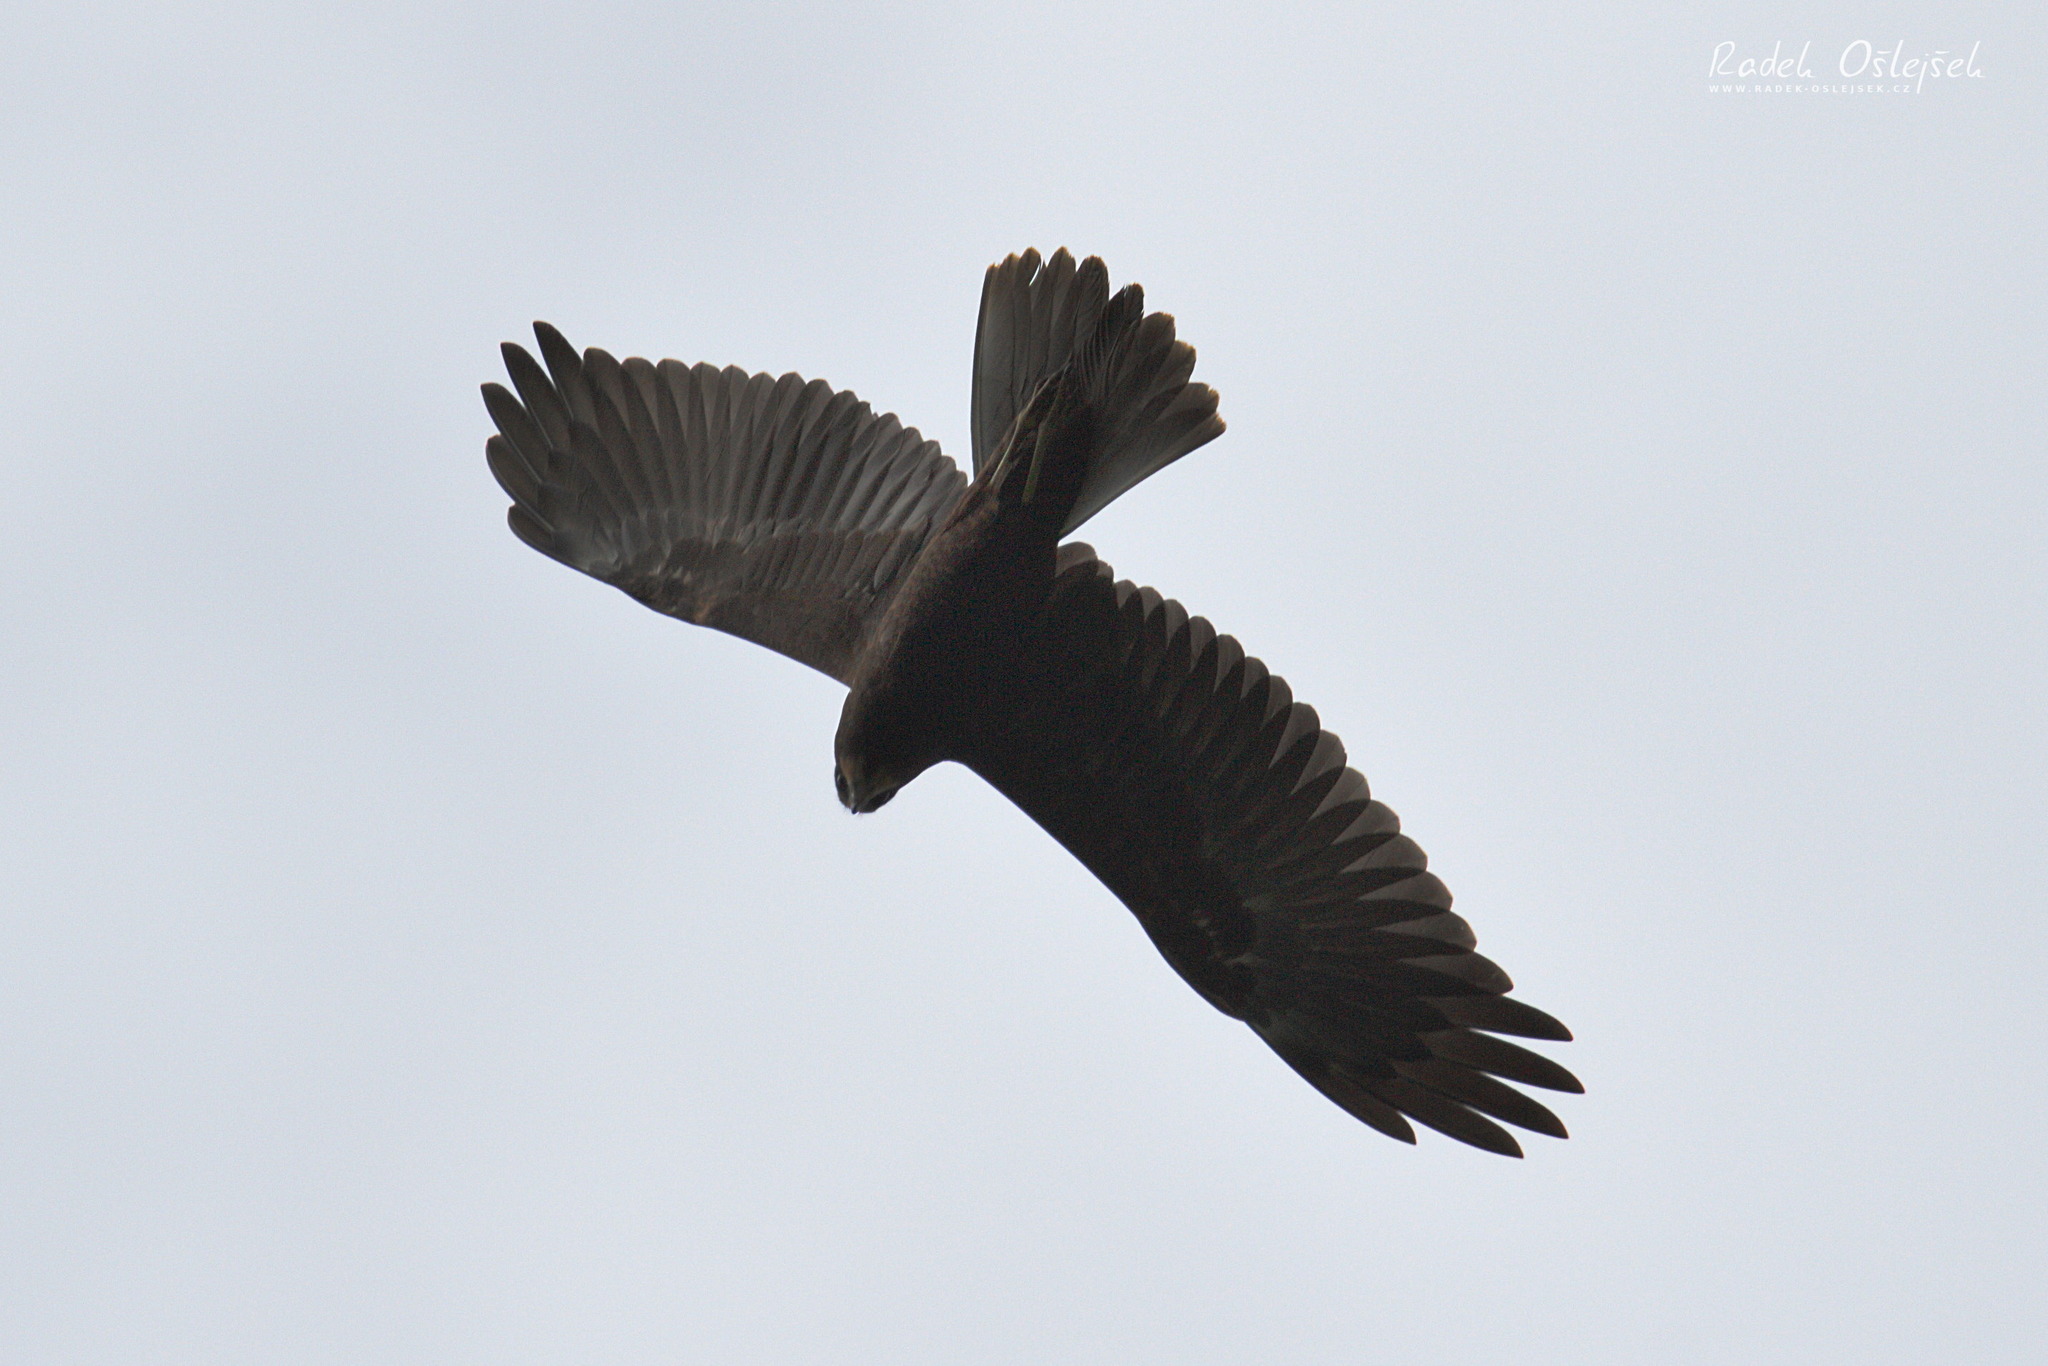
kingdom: Animalia
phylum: Chordata
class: Aves
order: Accipitriformes
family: Accipitridae
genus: Circus
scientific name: Circus aeruginosus
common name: Western marsh harrier
